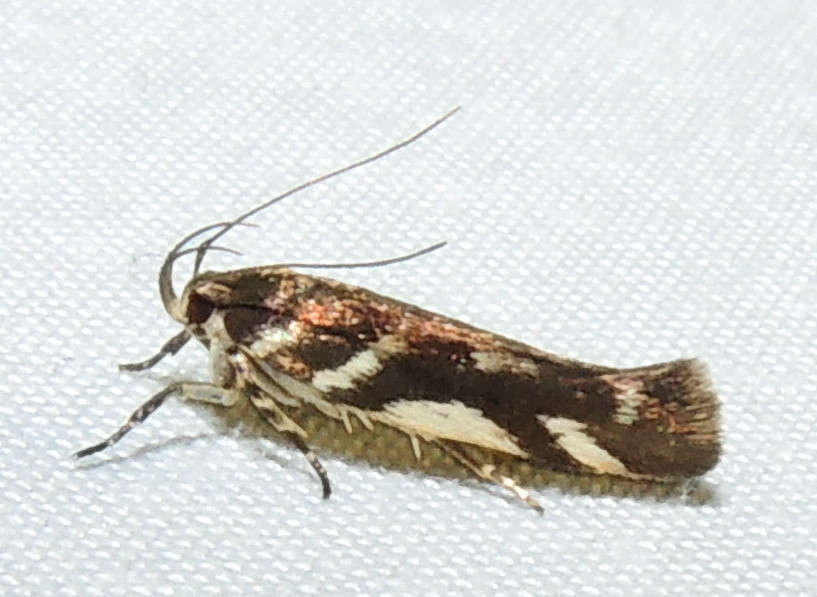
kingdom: Animalia
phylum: Arthropoda
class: Insecta
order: Lepidoptera
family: Cosmopterigidae
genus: Macrobathra
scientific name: Macrobathra heminephela
